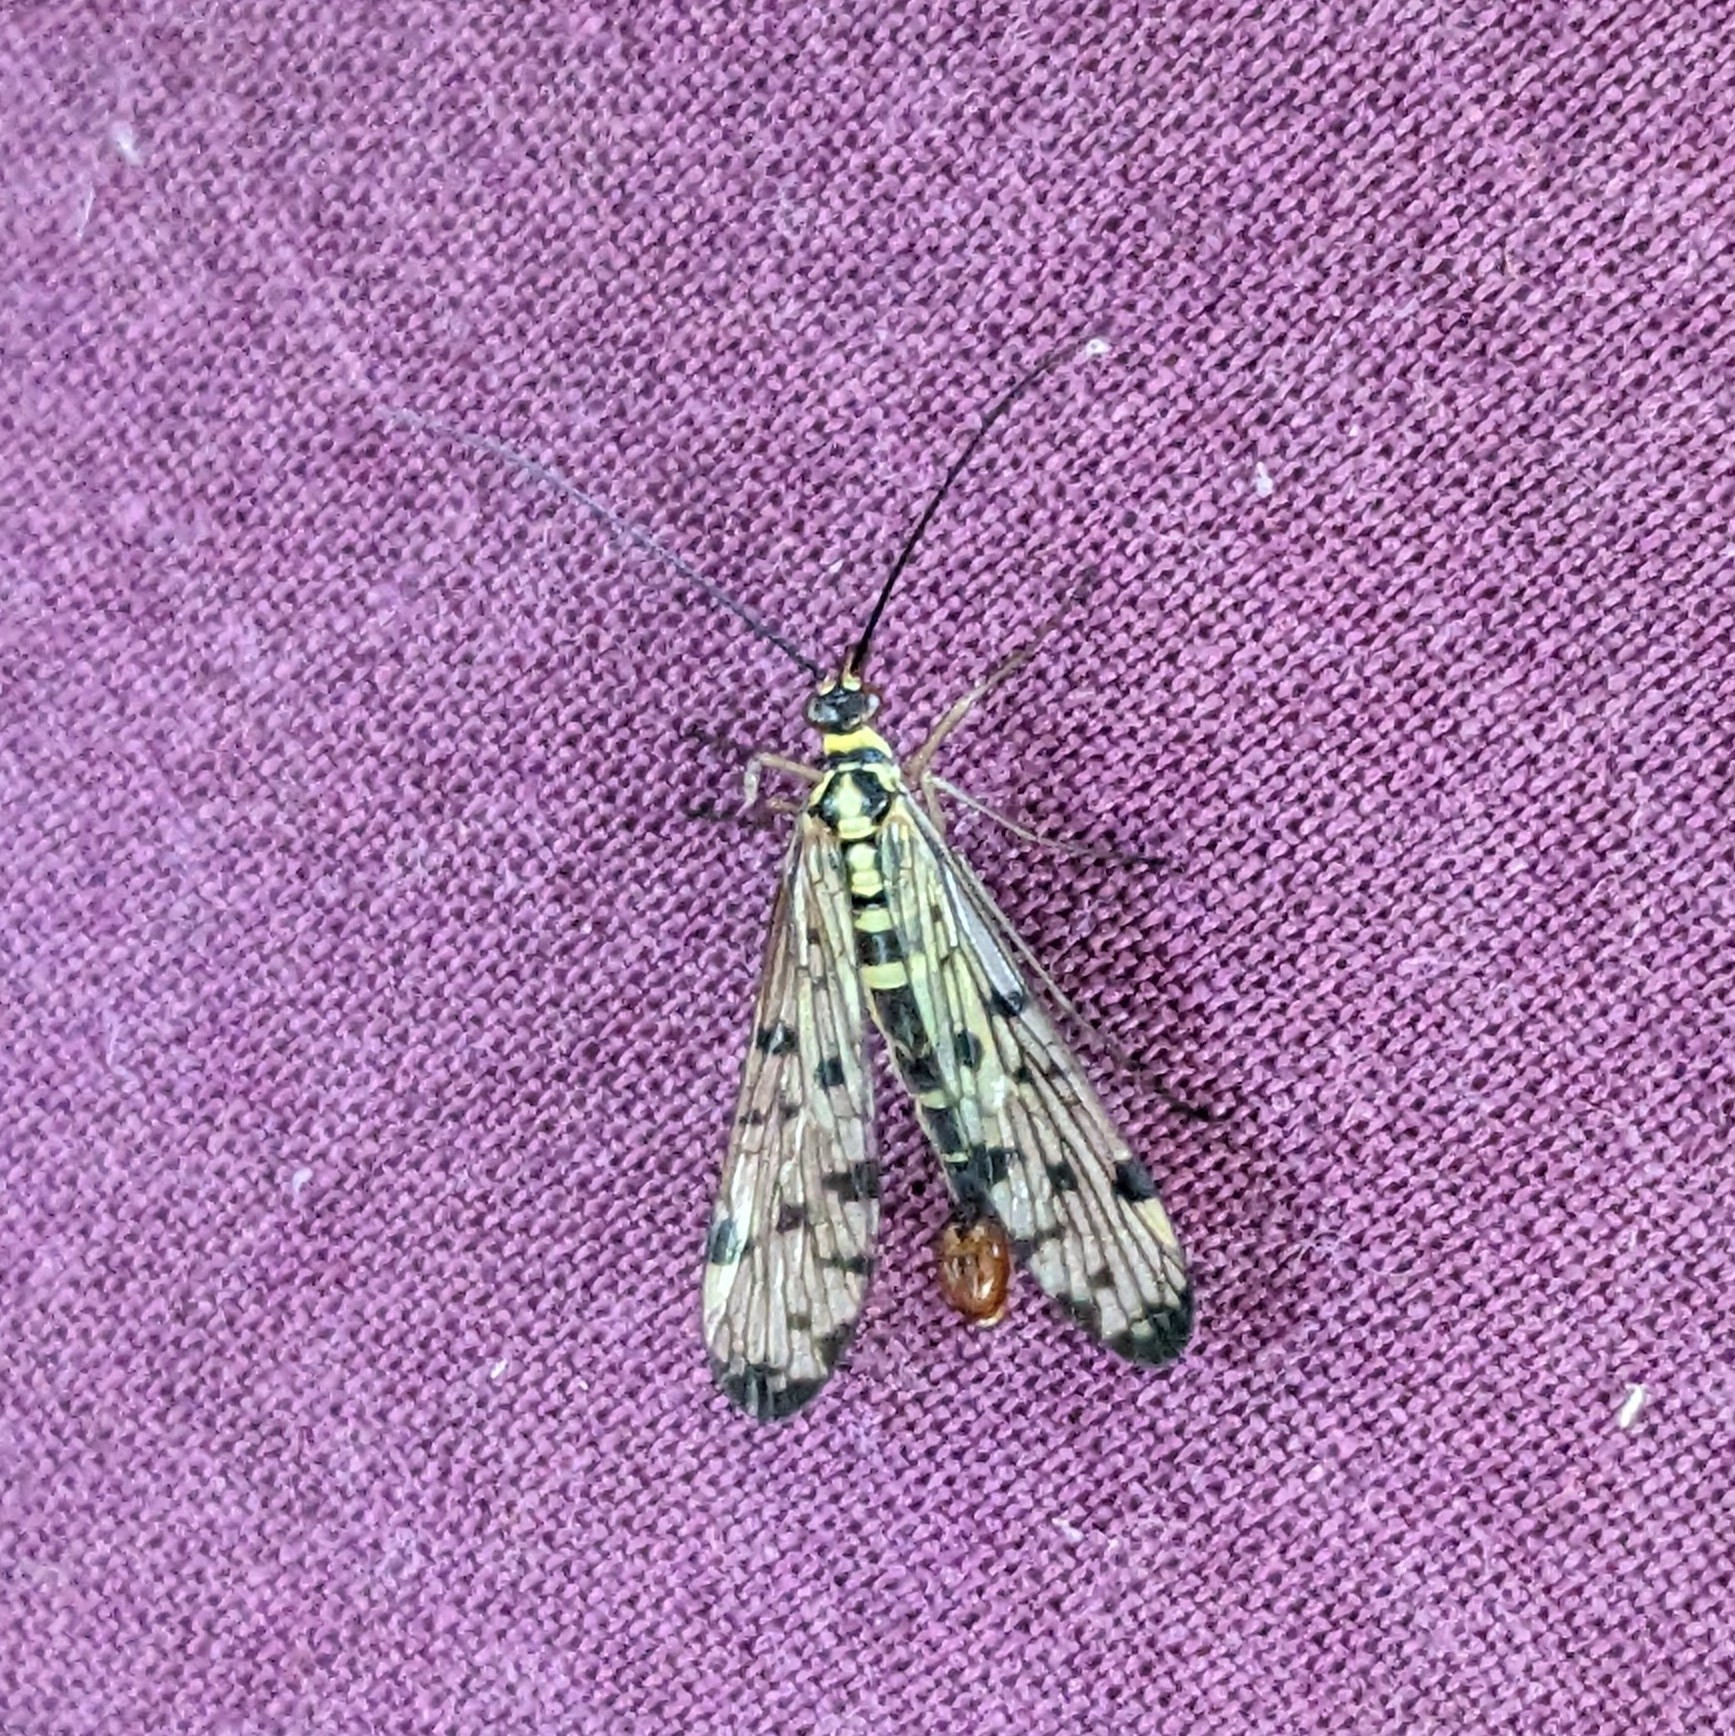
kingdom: Animalia
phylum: Arthropoda
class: Insecta
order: Mecoptera
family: Panorpidae
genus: Panorpa
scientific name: Panorpa
